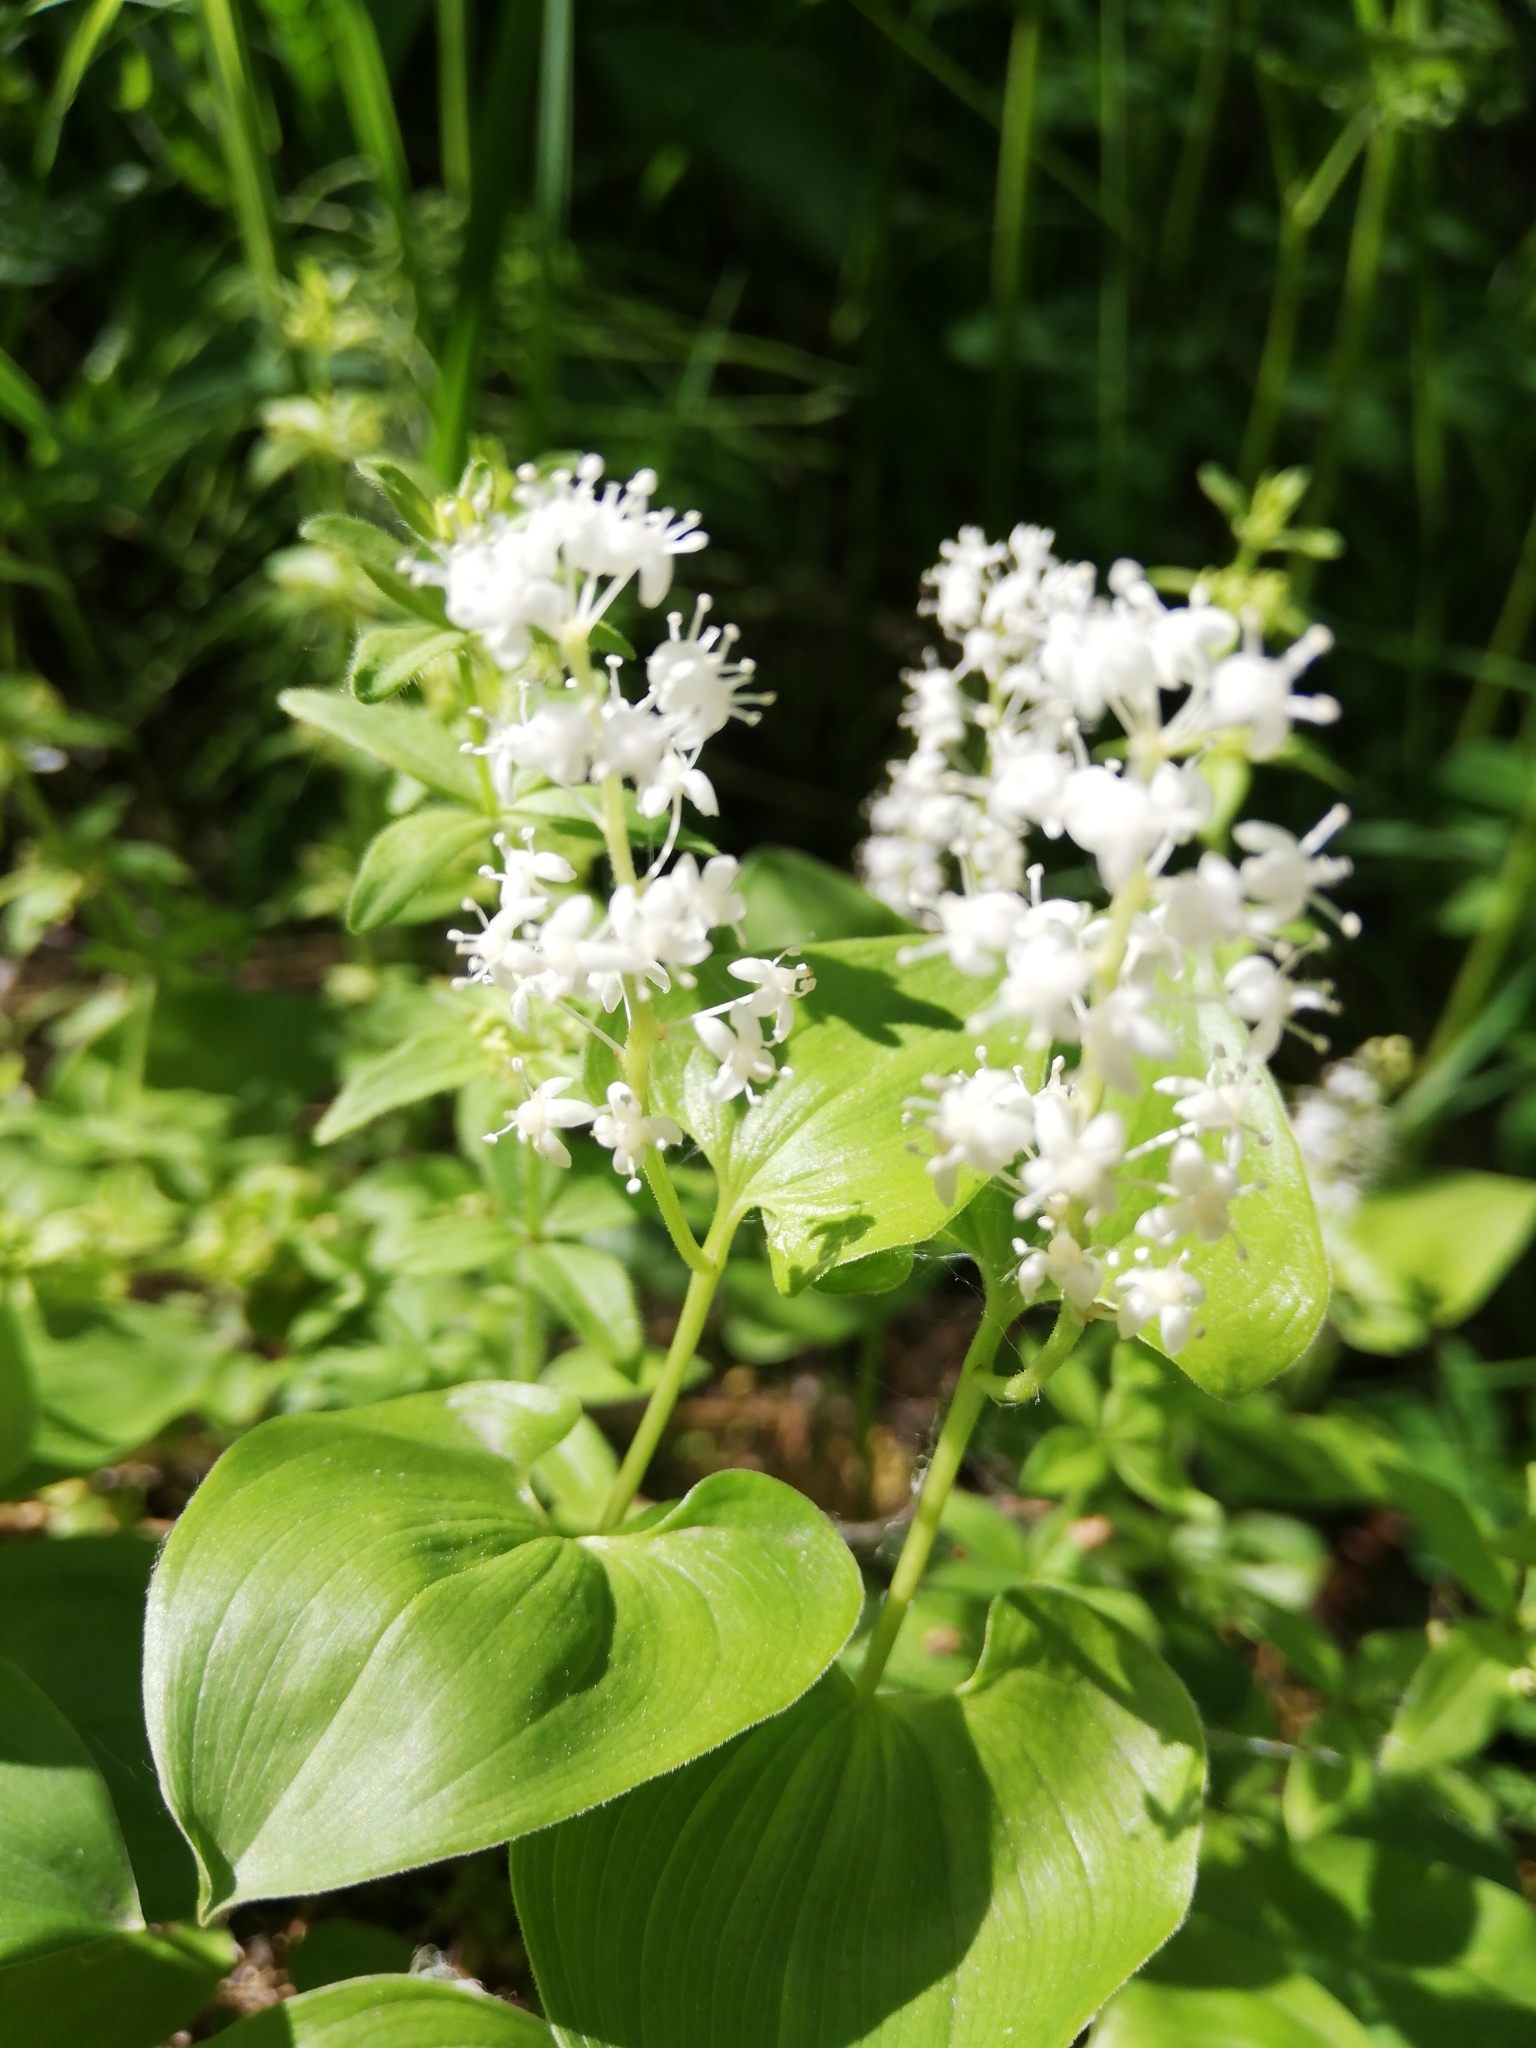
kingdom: Plantae
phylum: Tracheophyta
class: Liliopsida
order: Asparagales
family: Asparagaceae
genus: Maianthemum
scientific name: Maianthemum bifolium
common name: May lily
